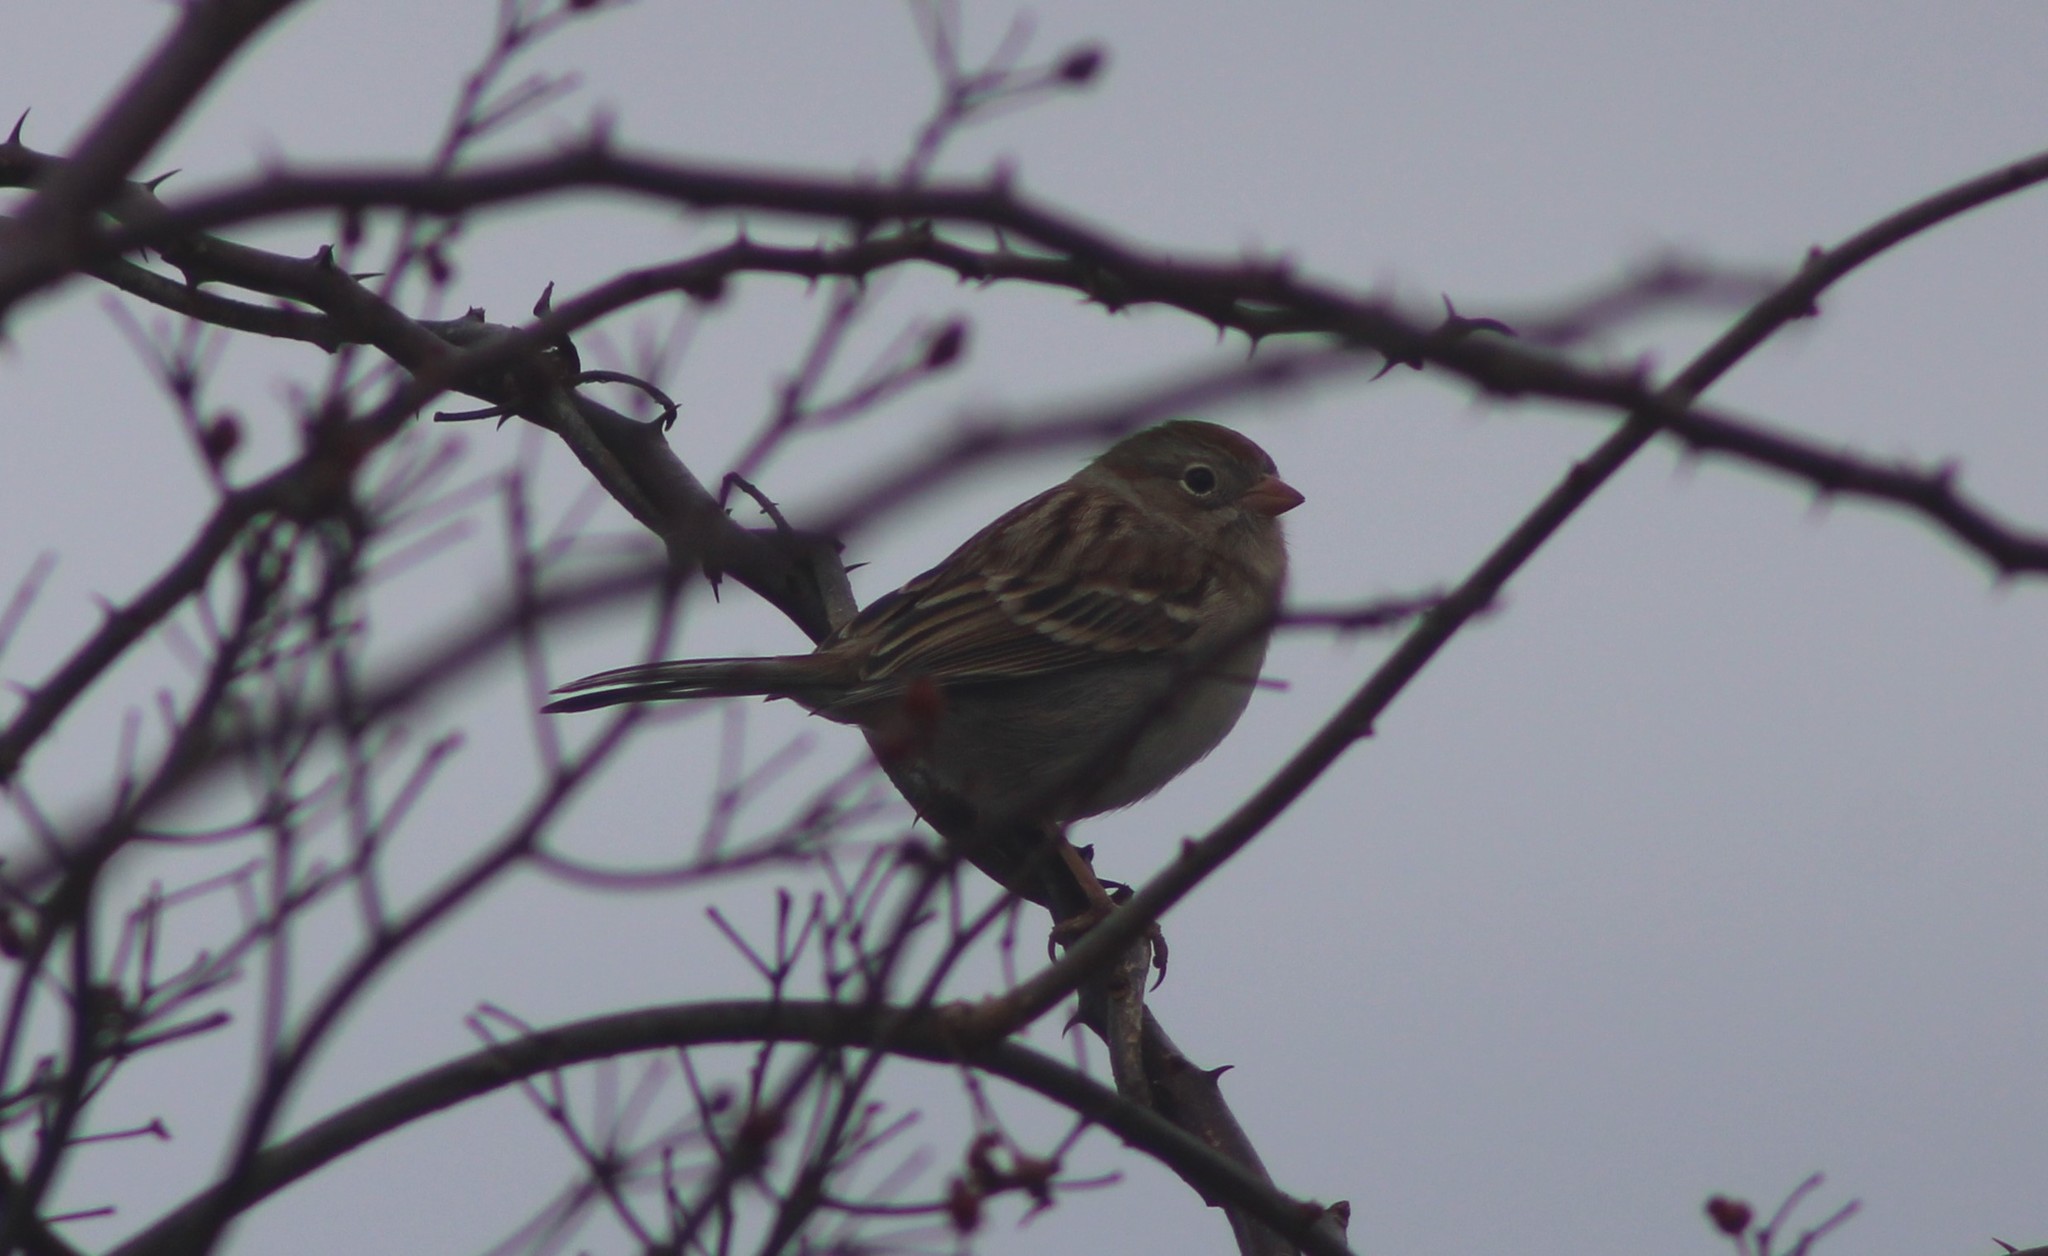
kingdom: Animalia
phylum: Chordata
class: Aves
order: Passeriformes
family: Passerellidae
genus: Spizella
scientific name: Spizella pusilla
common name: Field sparrow
